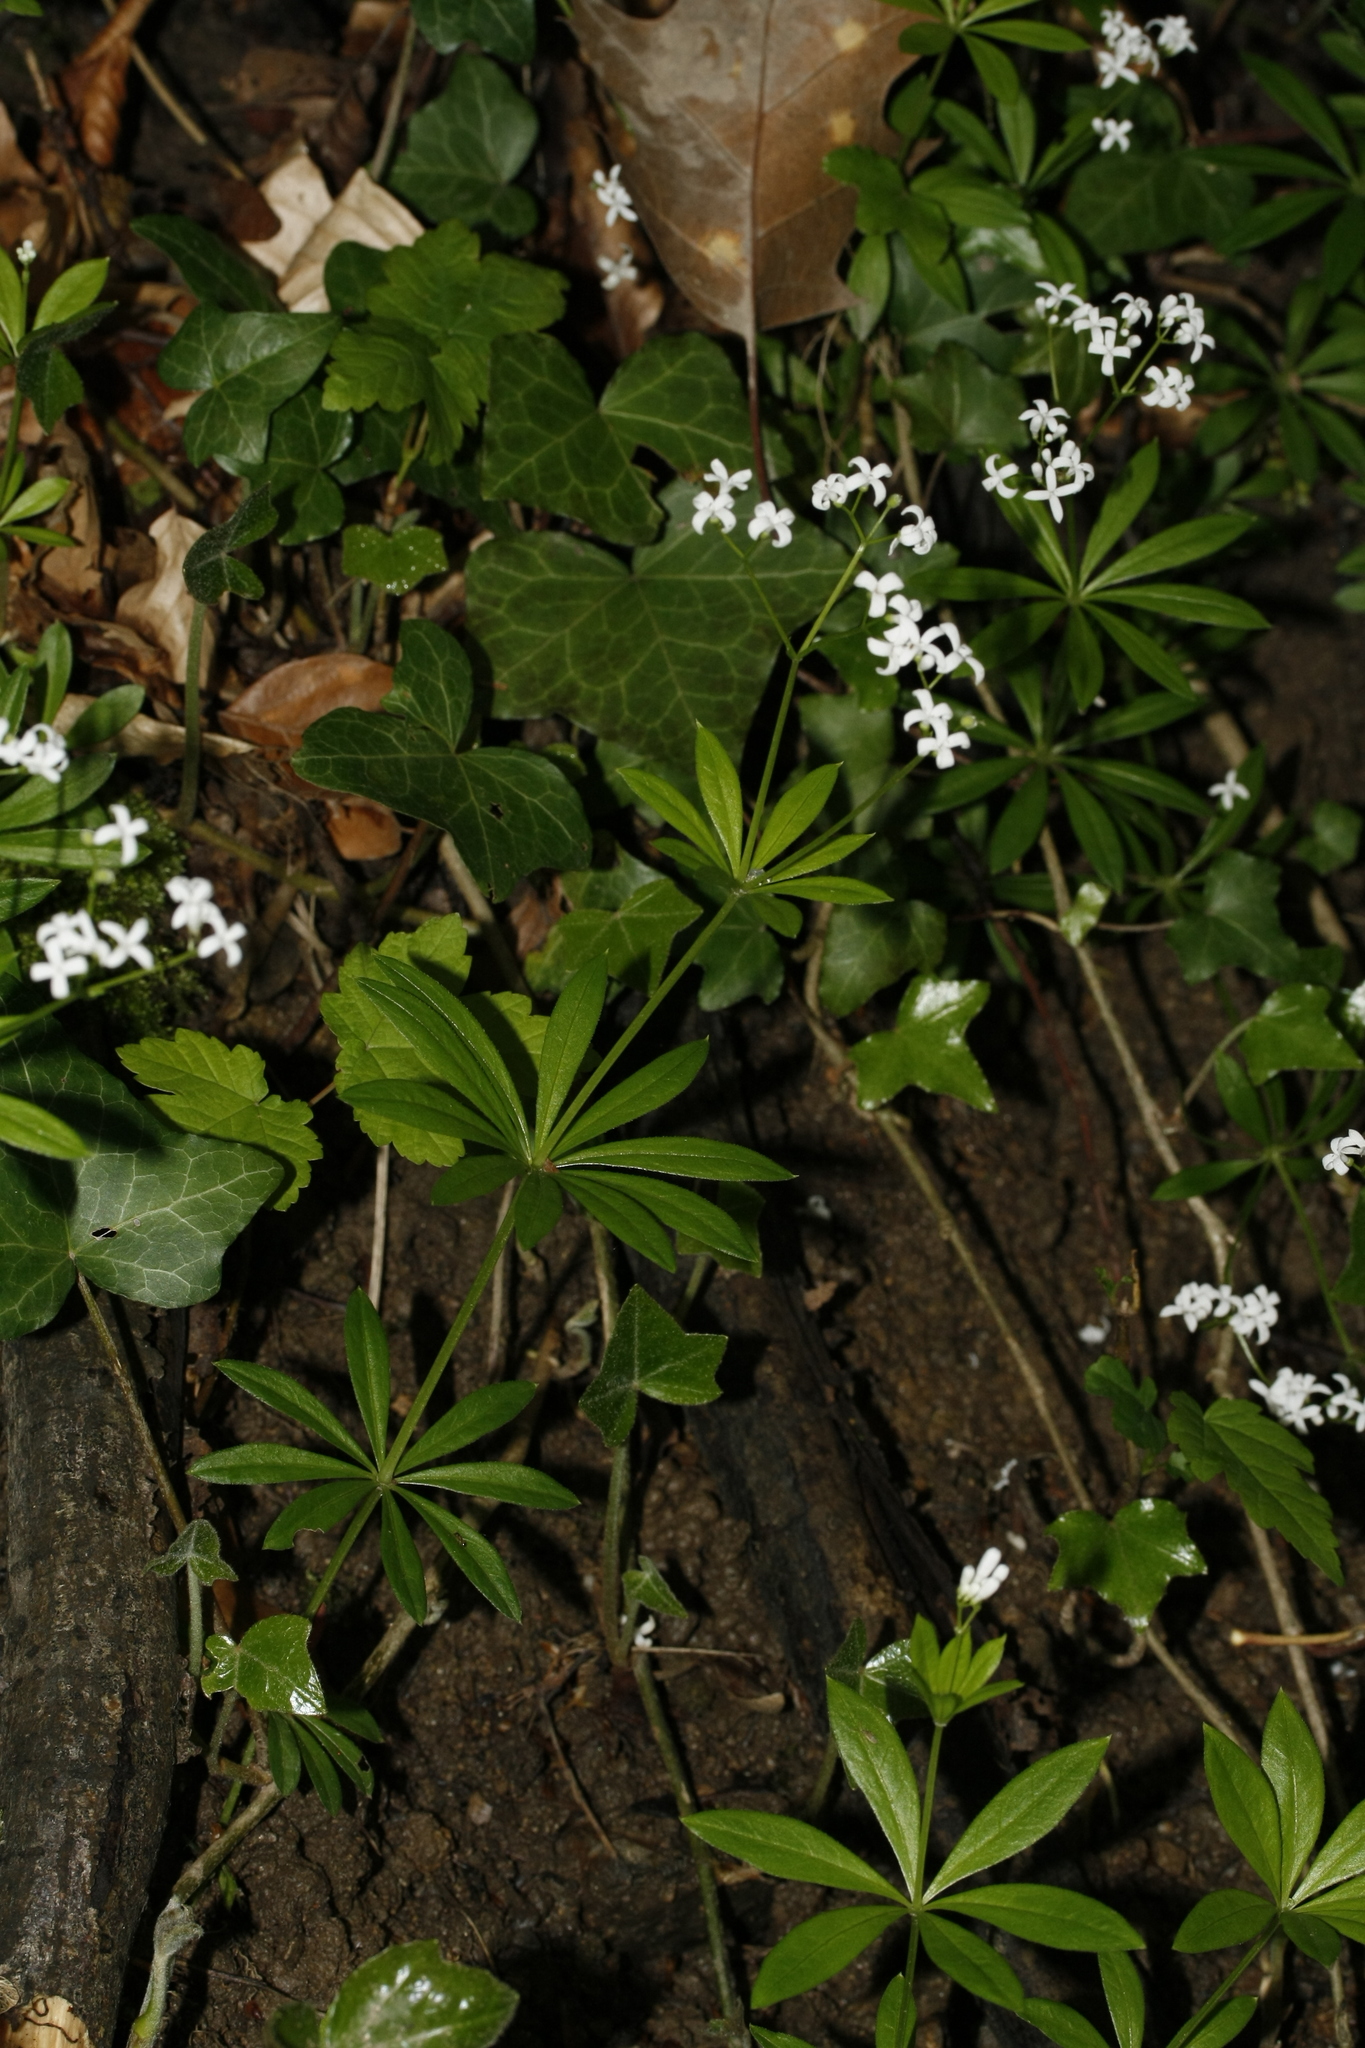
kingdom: Plantae
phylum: Tracheophyta
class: Magnoliopsida
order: Gentianales
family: Rubiaceae
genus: Galium
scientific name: Galium odoratum
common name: Sweet woodruff
